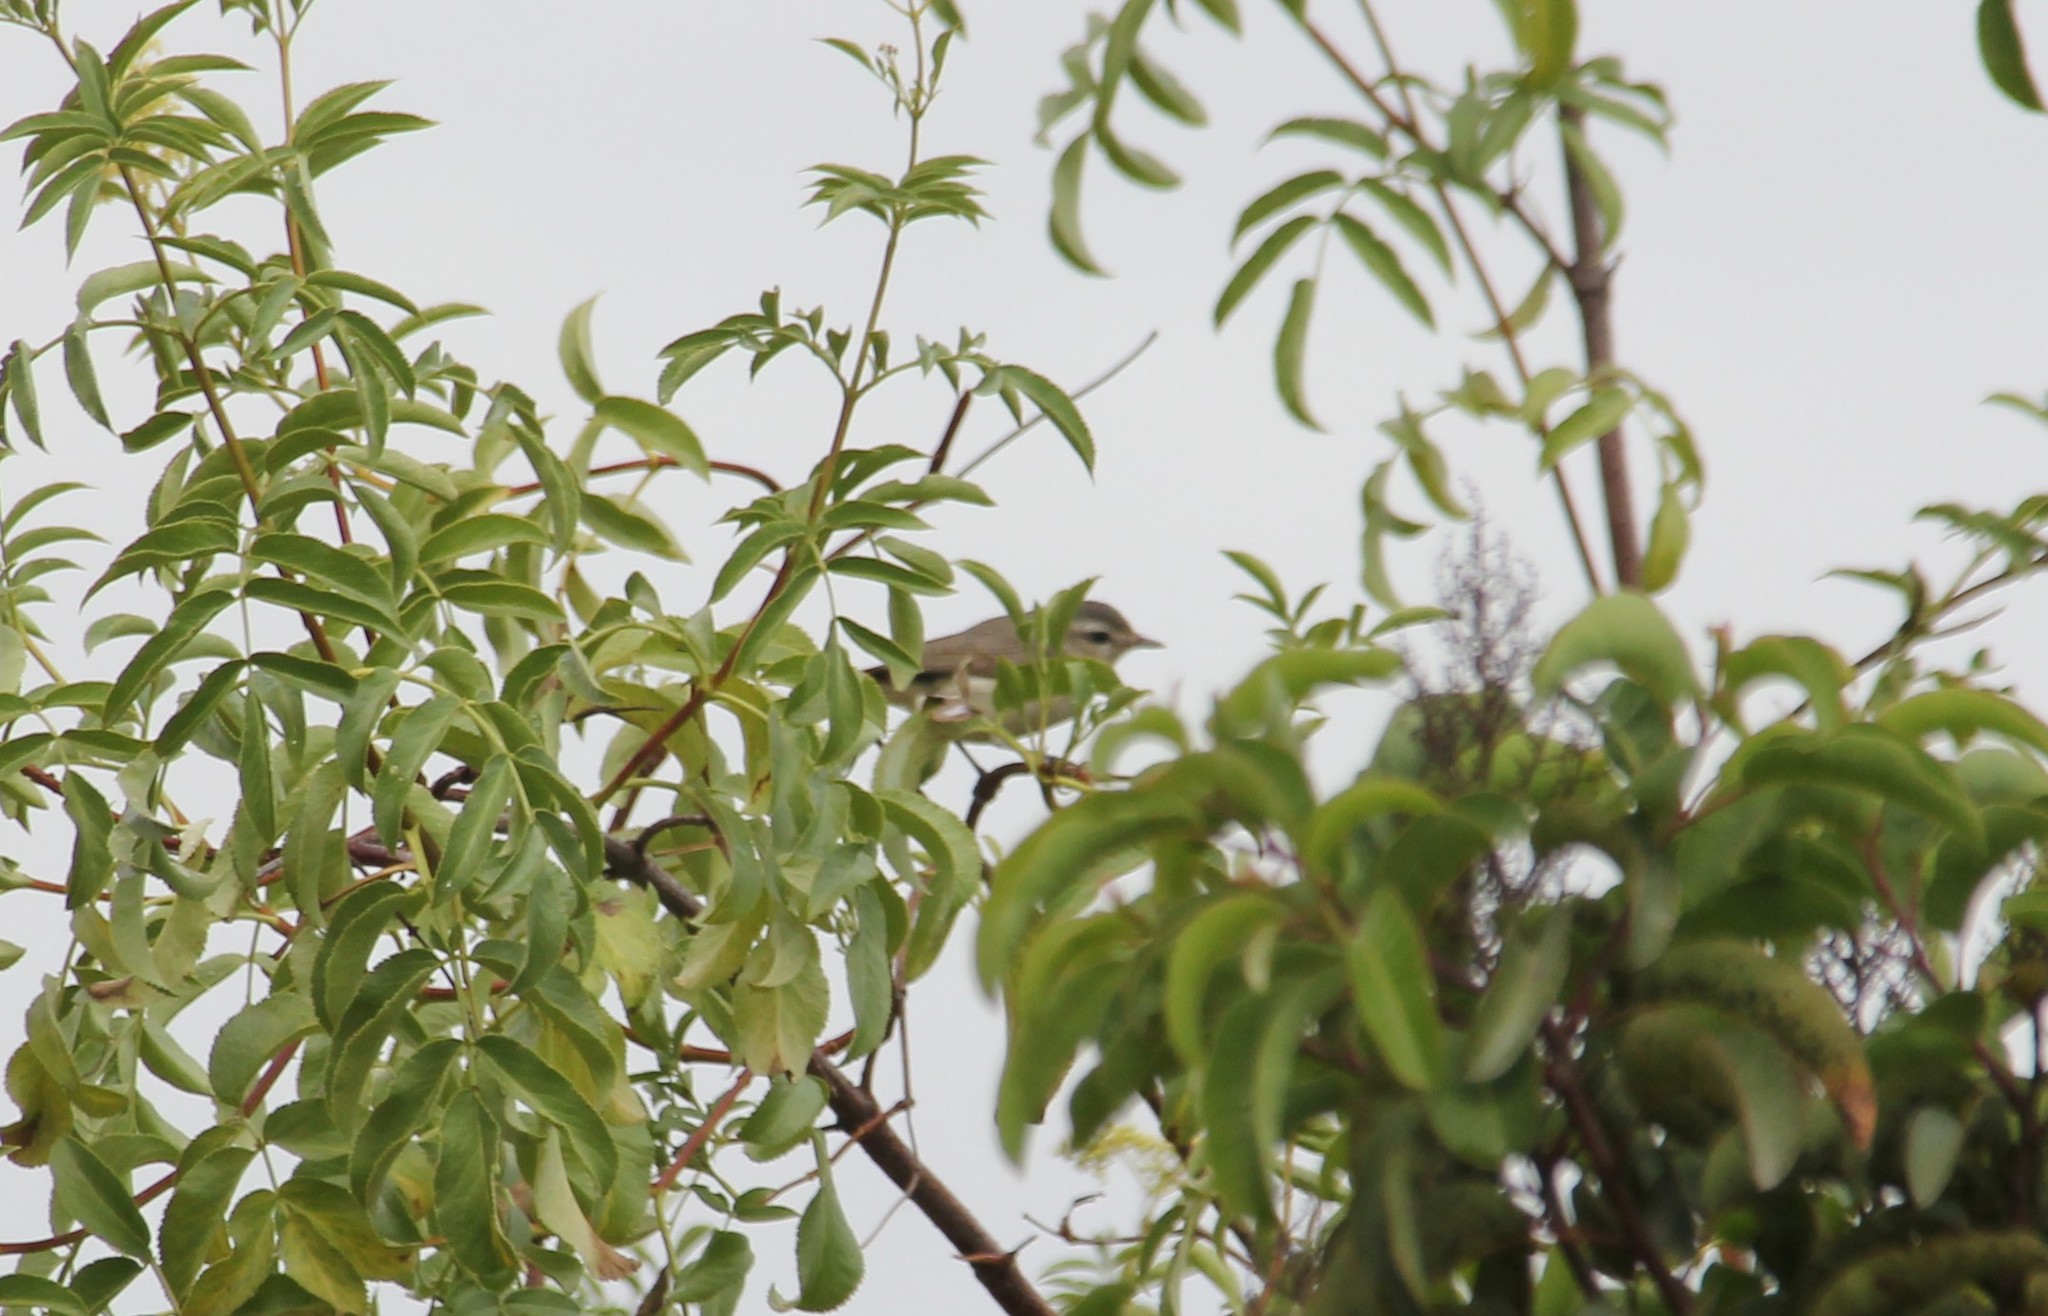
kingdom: Animalia
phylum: Chordata
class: Aves
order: Passeriformes
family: Vireonidae
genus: Vireo
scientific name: Vireo gilvus
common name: Warbling vireo
